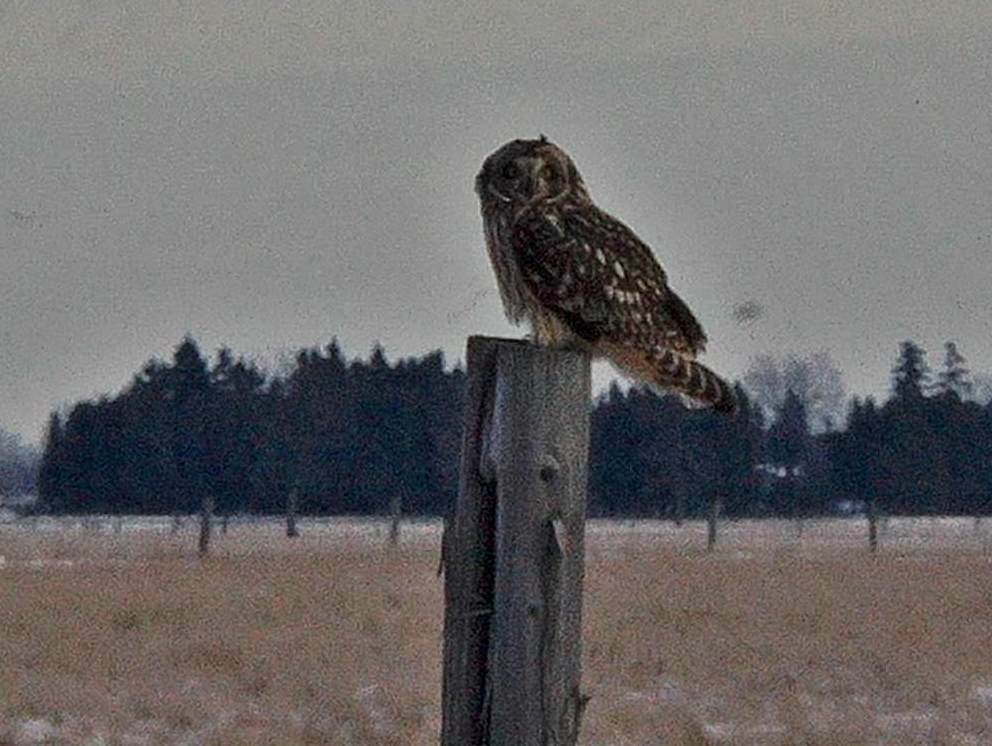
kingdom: Animalia
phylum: Chordata
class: Aves
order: Strigiformes
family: Strigidae
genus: Asio
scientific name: Asio flammeus
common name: Short-eared owl
